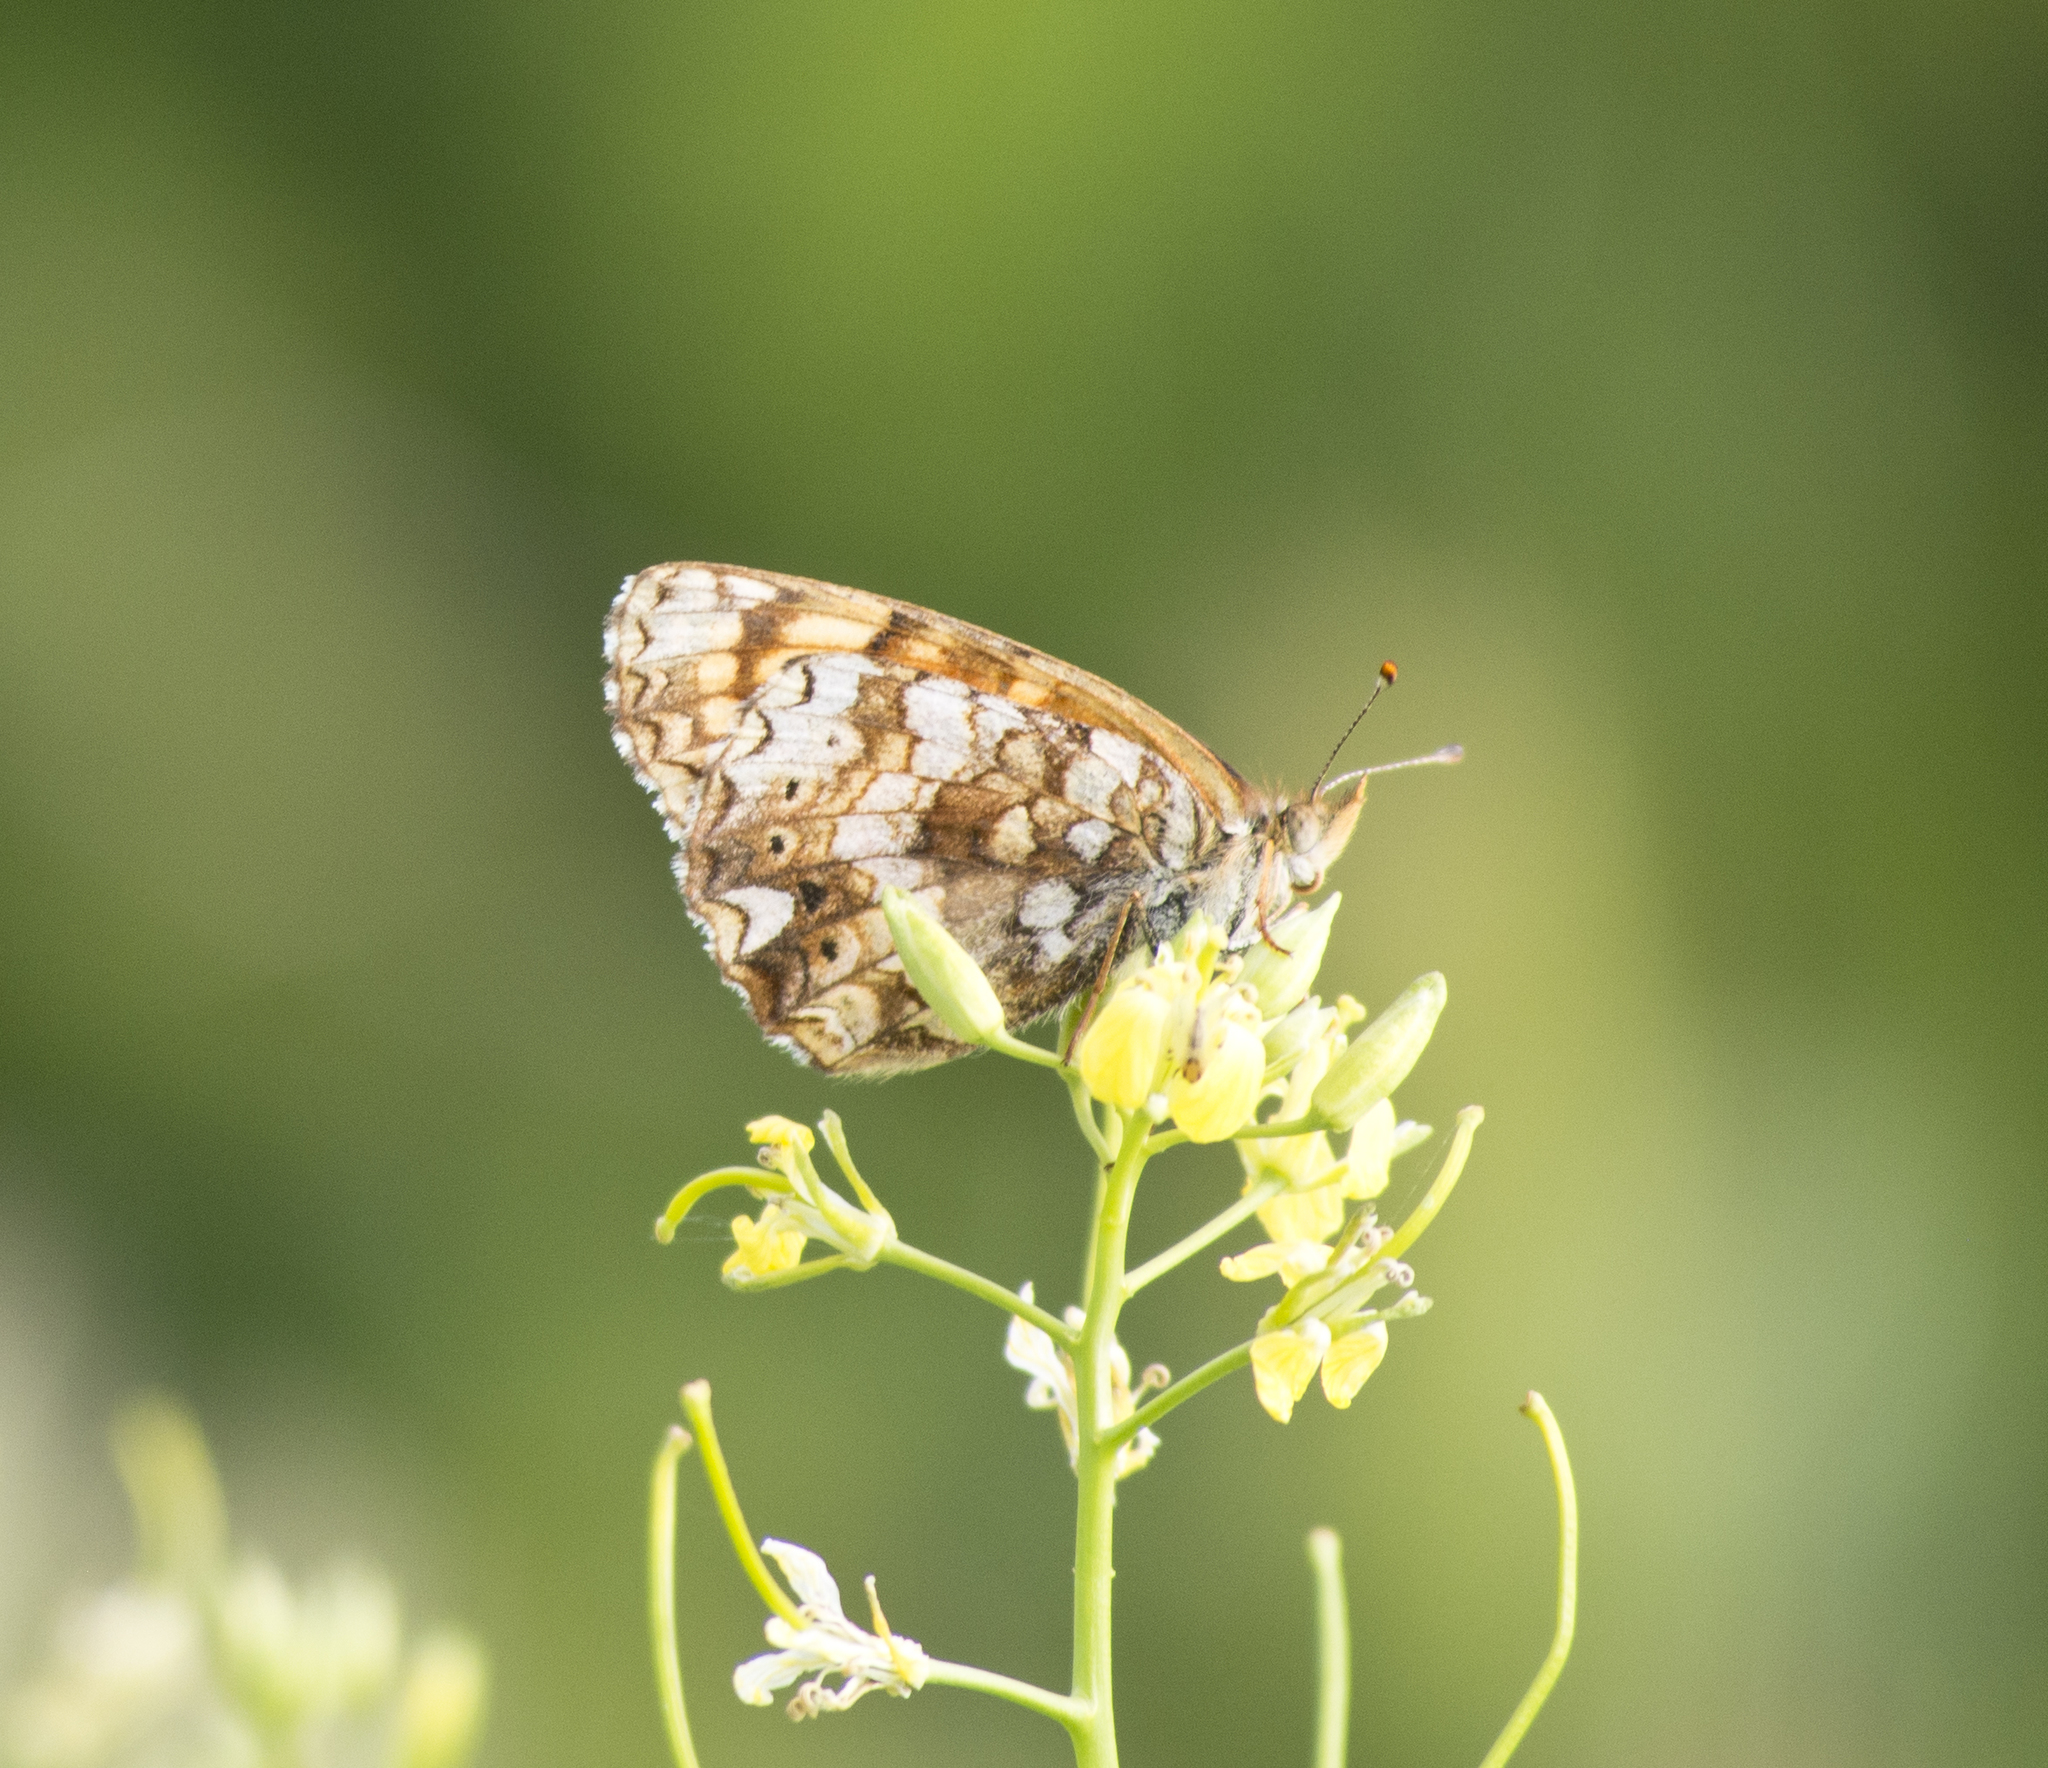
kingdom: Animalia
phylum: Arthropoda
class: Insecta
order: Lepidoptera
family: Nymphalidae
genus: Eresia
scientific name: Eresia aveyrona
